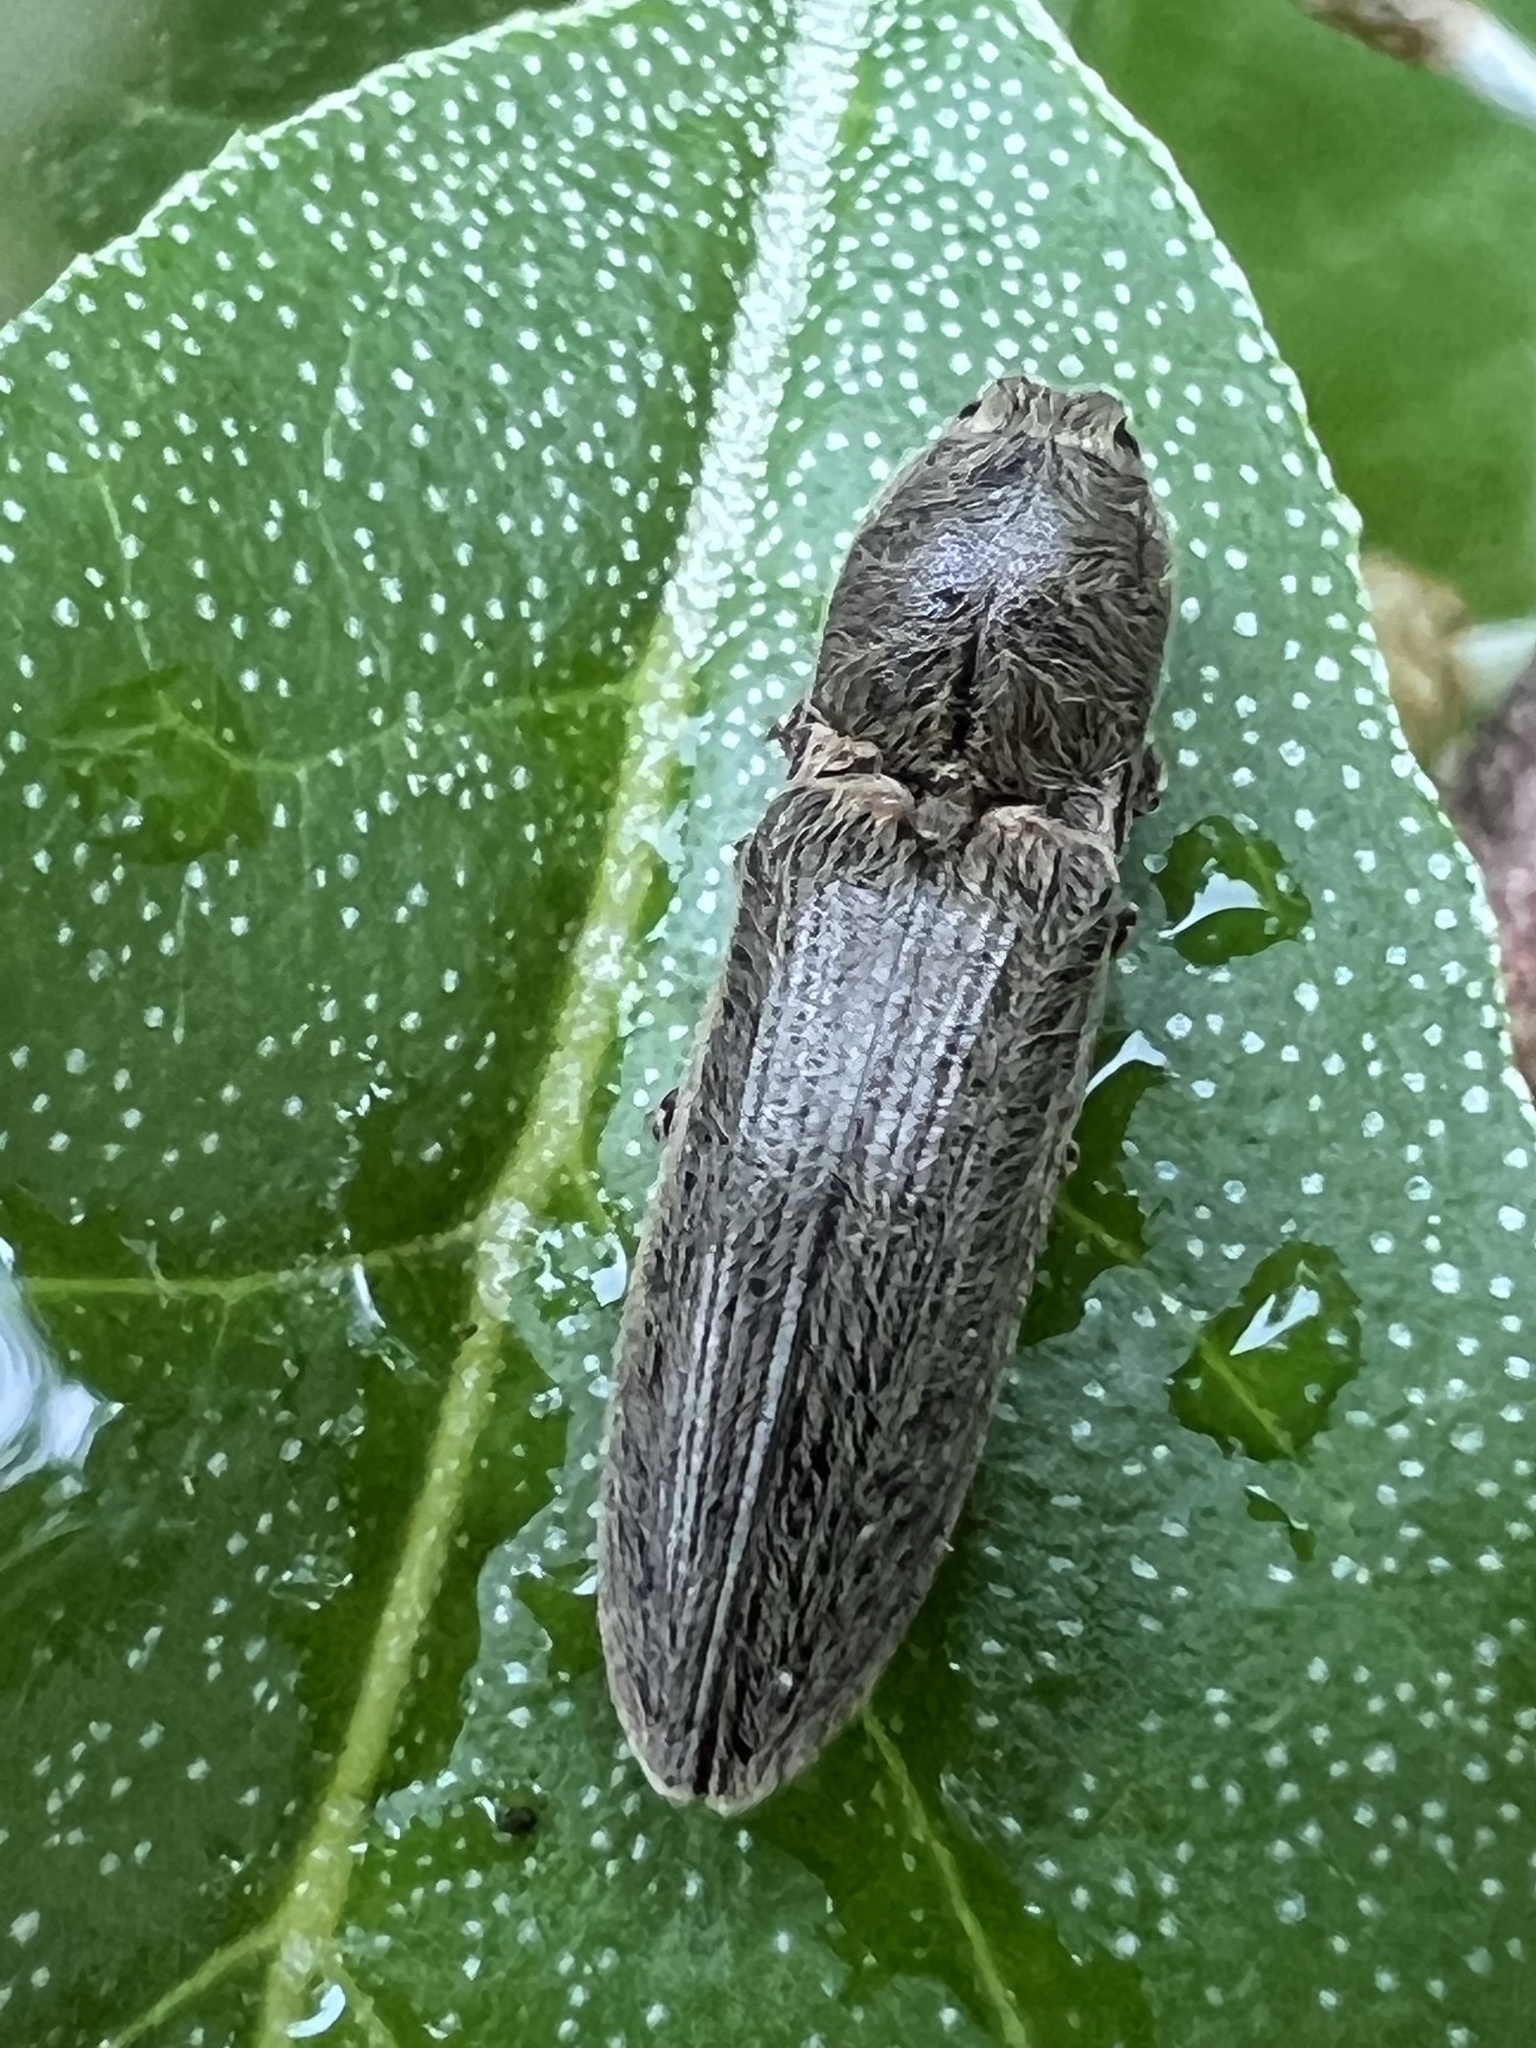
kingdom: Animalia
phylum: Arthropoda
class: Insecta
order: Coleoptera
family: Elateridae
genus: Gambrinus
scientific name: Gambrinus griseus
